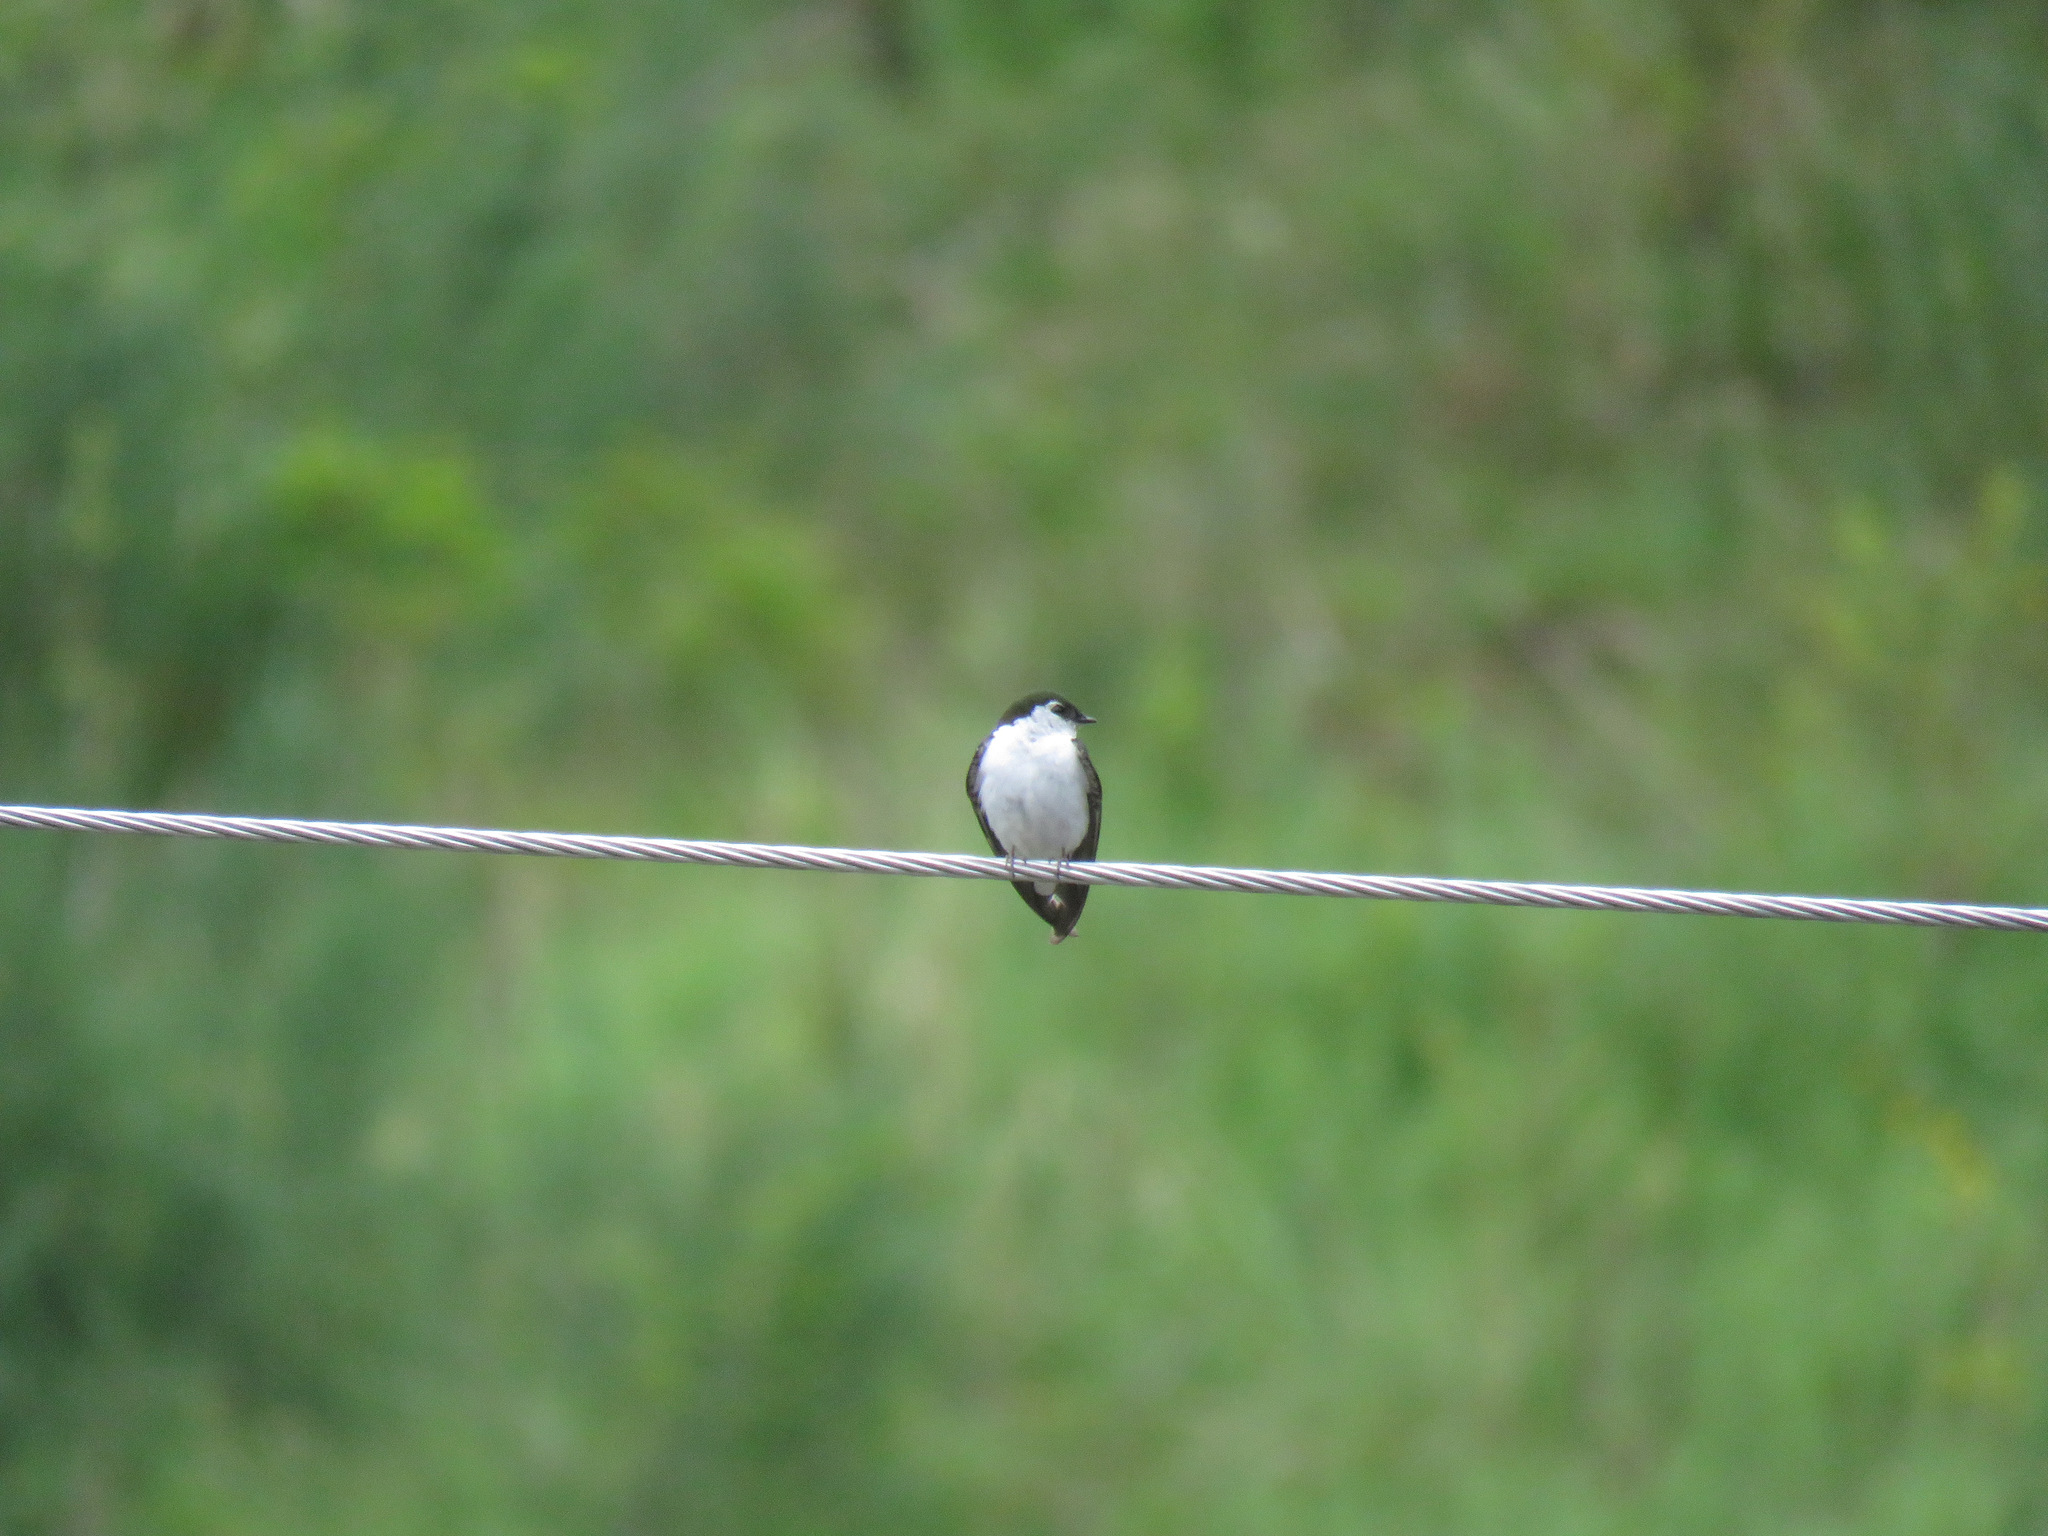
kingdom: Animalia
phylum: Chordata
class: Aves
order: Passeriformes
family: Hirundinidae
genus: Tachycineta
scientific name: Tachycineta thalassina
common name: Violet-green swallow
